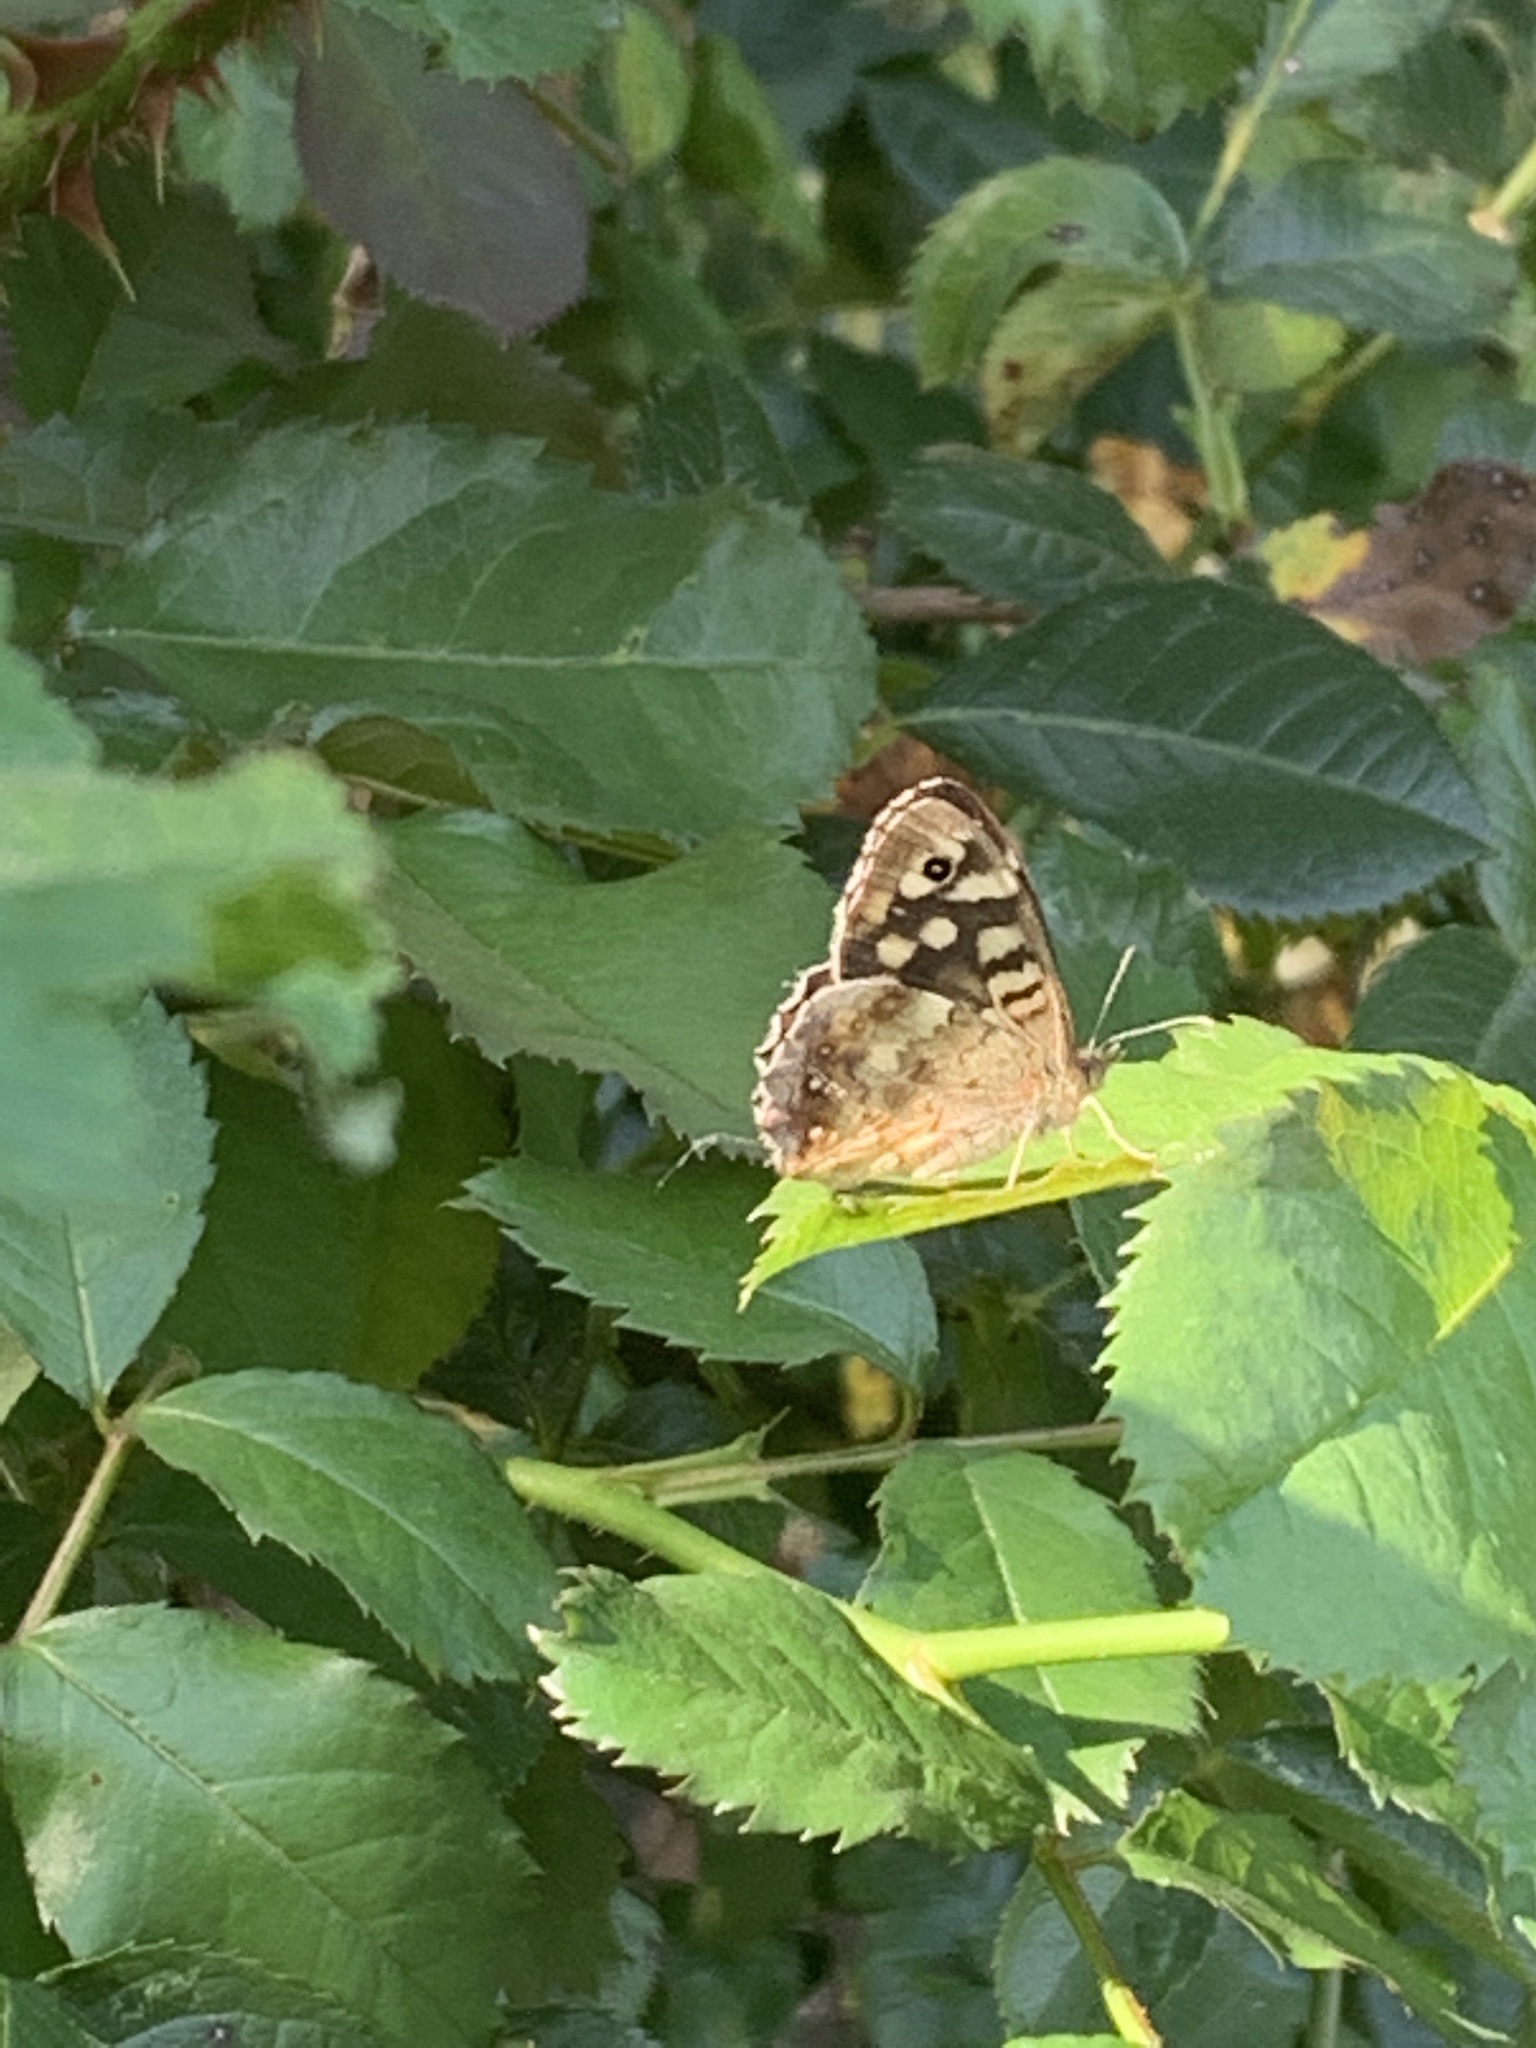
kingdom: Animalia
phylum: Arthropoda
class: Insecta
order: Lepidoptera
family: Nymphalidae
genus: Pararge
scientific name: Pararge aegeria
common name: Speckled wood
